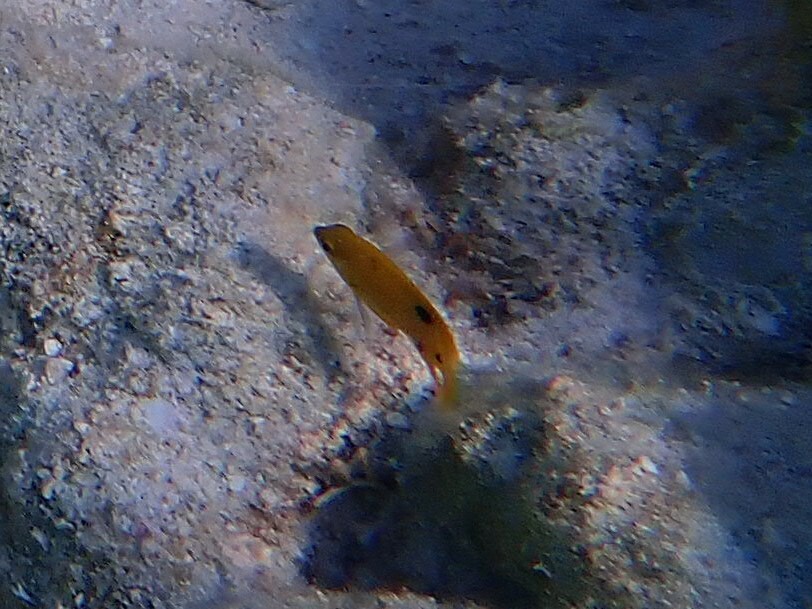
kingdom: Animalia
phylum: Chordata
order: Perciformes
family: Pomacentridae
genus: Stegastes
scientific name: Stegastes planifrons
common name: Threespot damselfish
